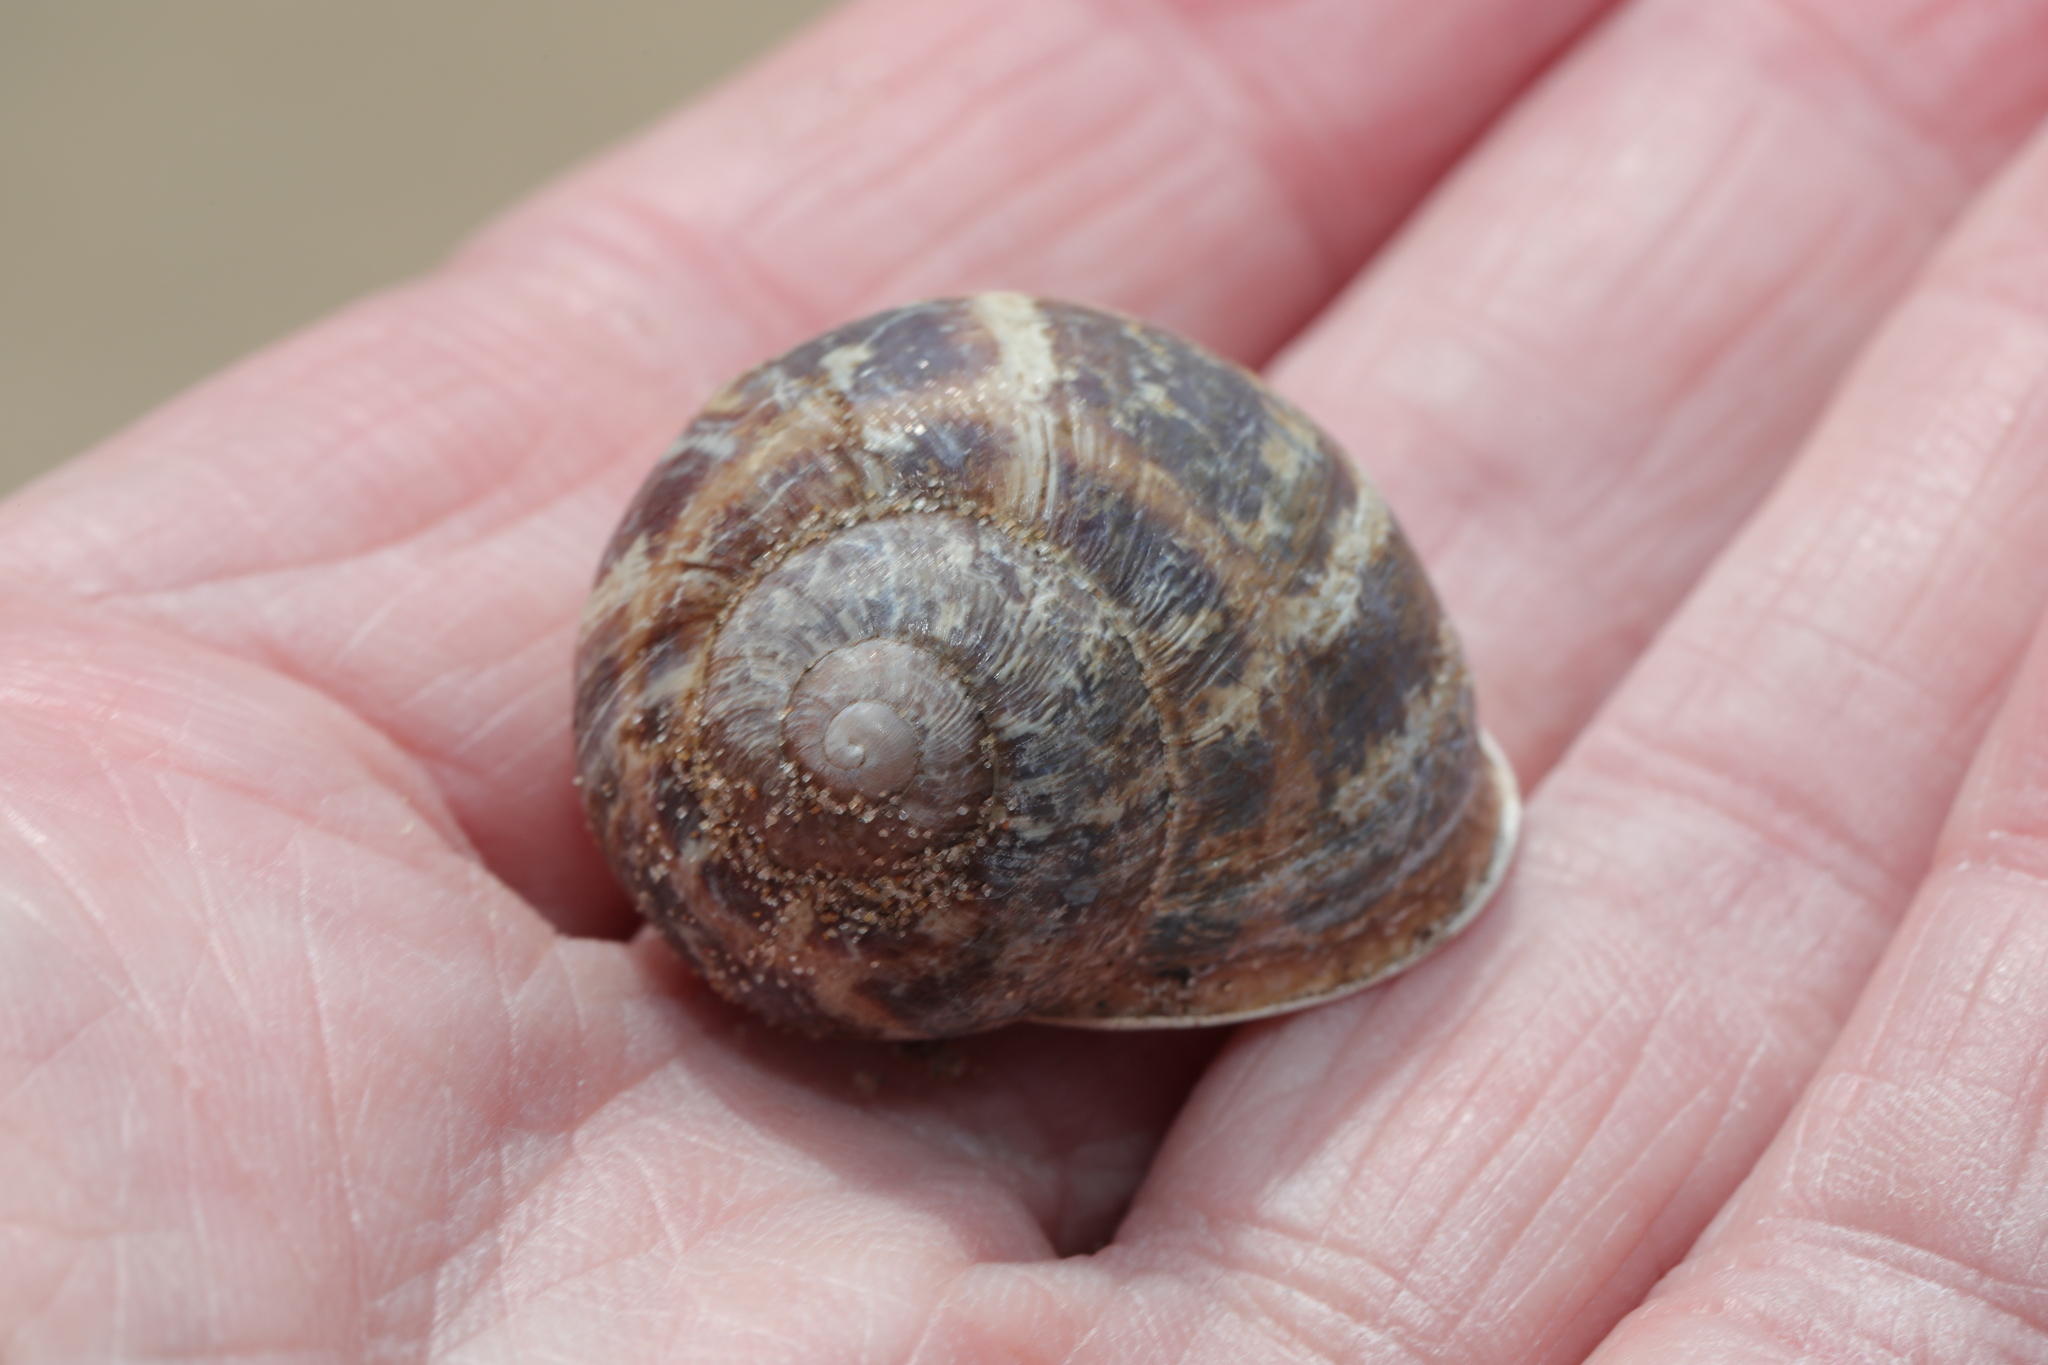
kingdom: Animalia
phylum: Mollusca
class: Gastropoda
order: Stylommatophora
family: Helicidae
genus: Cornu
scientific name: Cornu aspersum
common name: Brown garden snail
